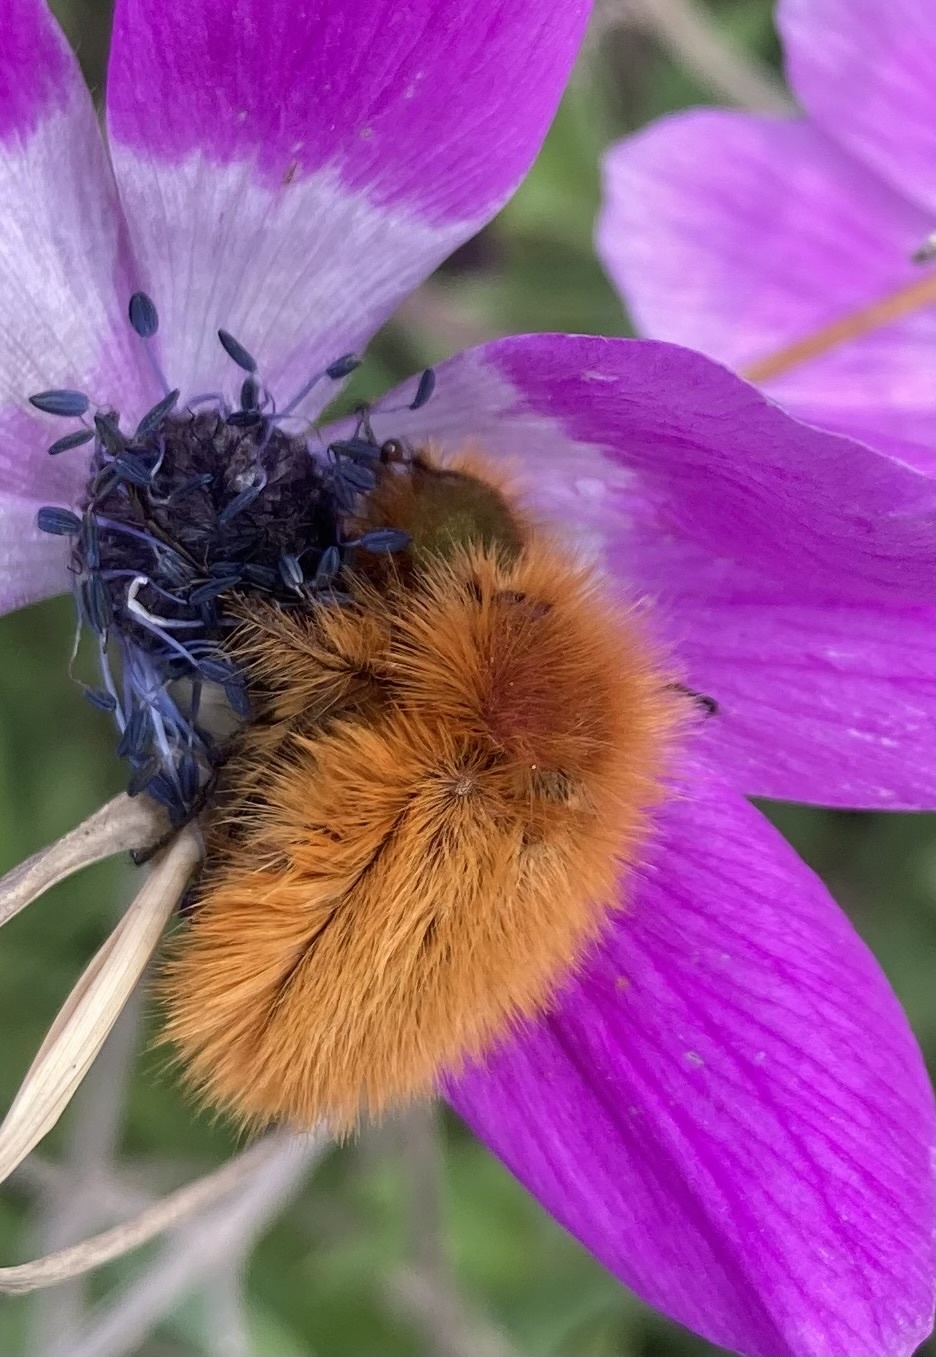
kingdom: Animalia
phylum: Arthropoda
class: Insecta
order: Coleoptera
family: Glaphyridae
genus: Pygopleurus
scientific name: Pygopleurus vulpes
